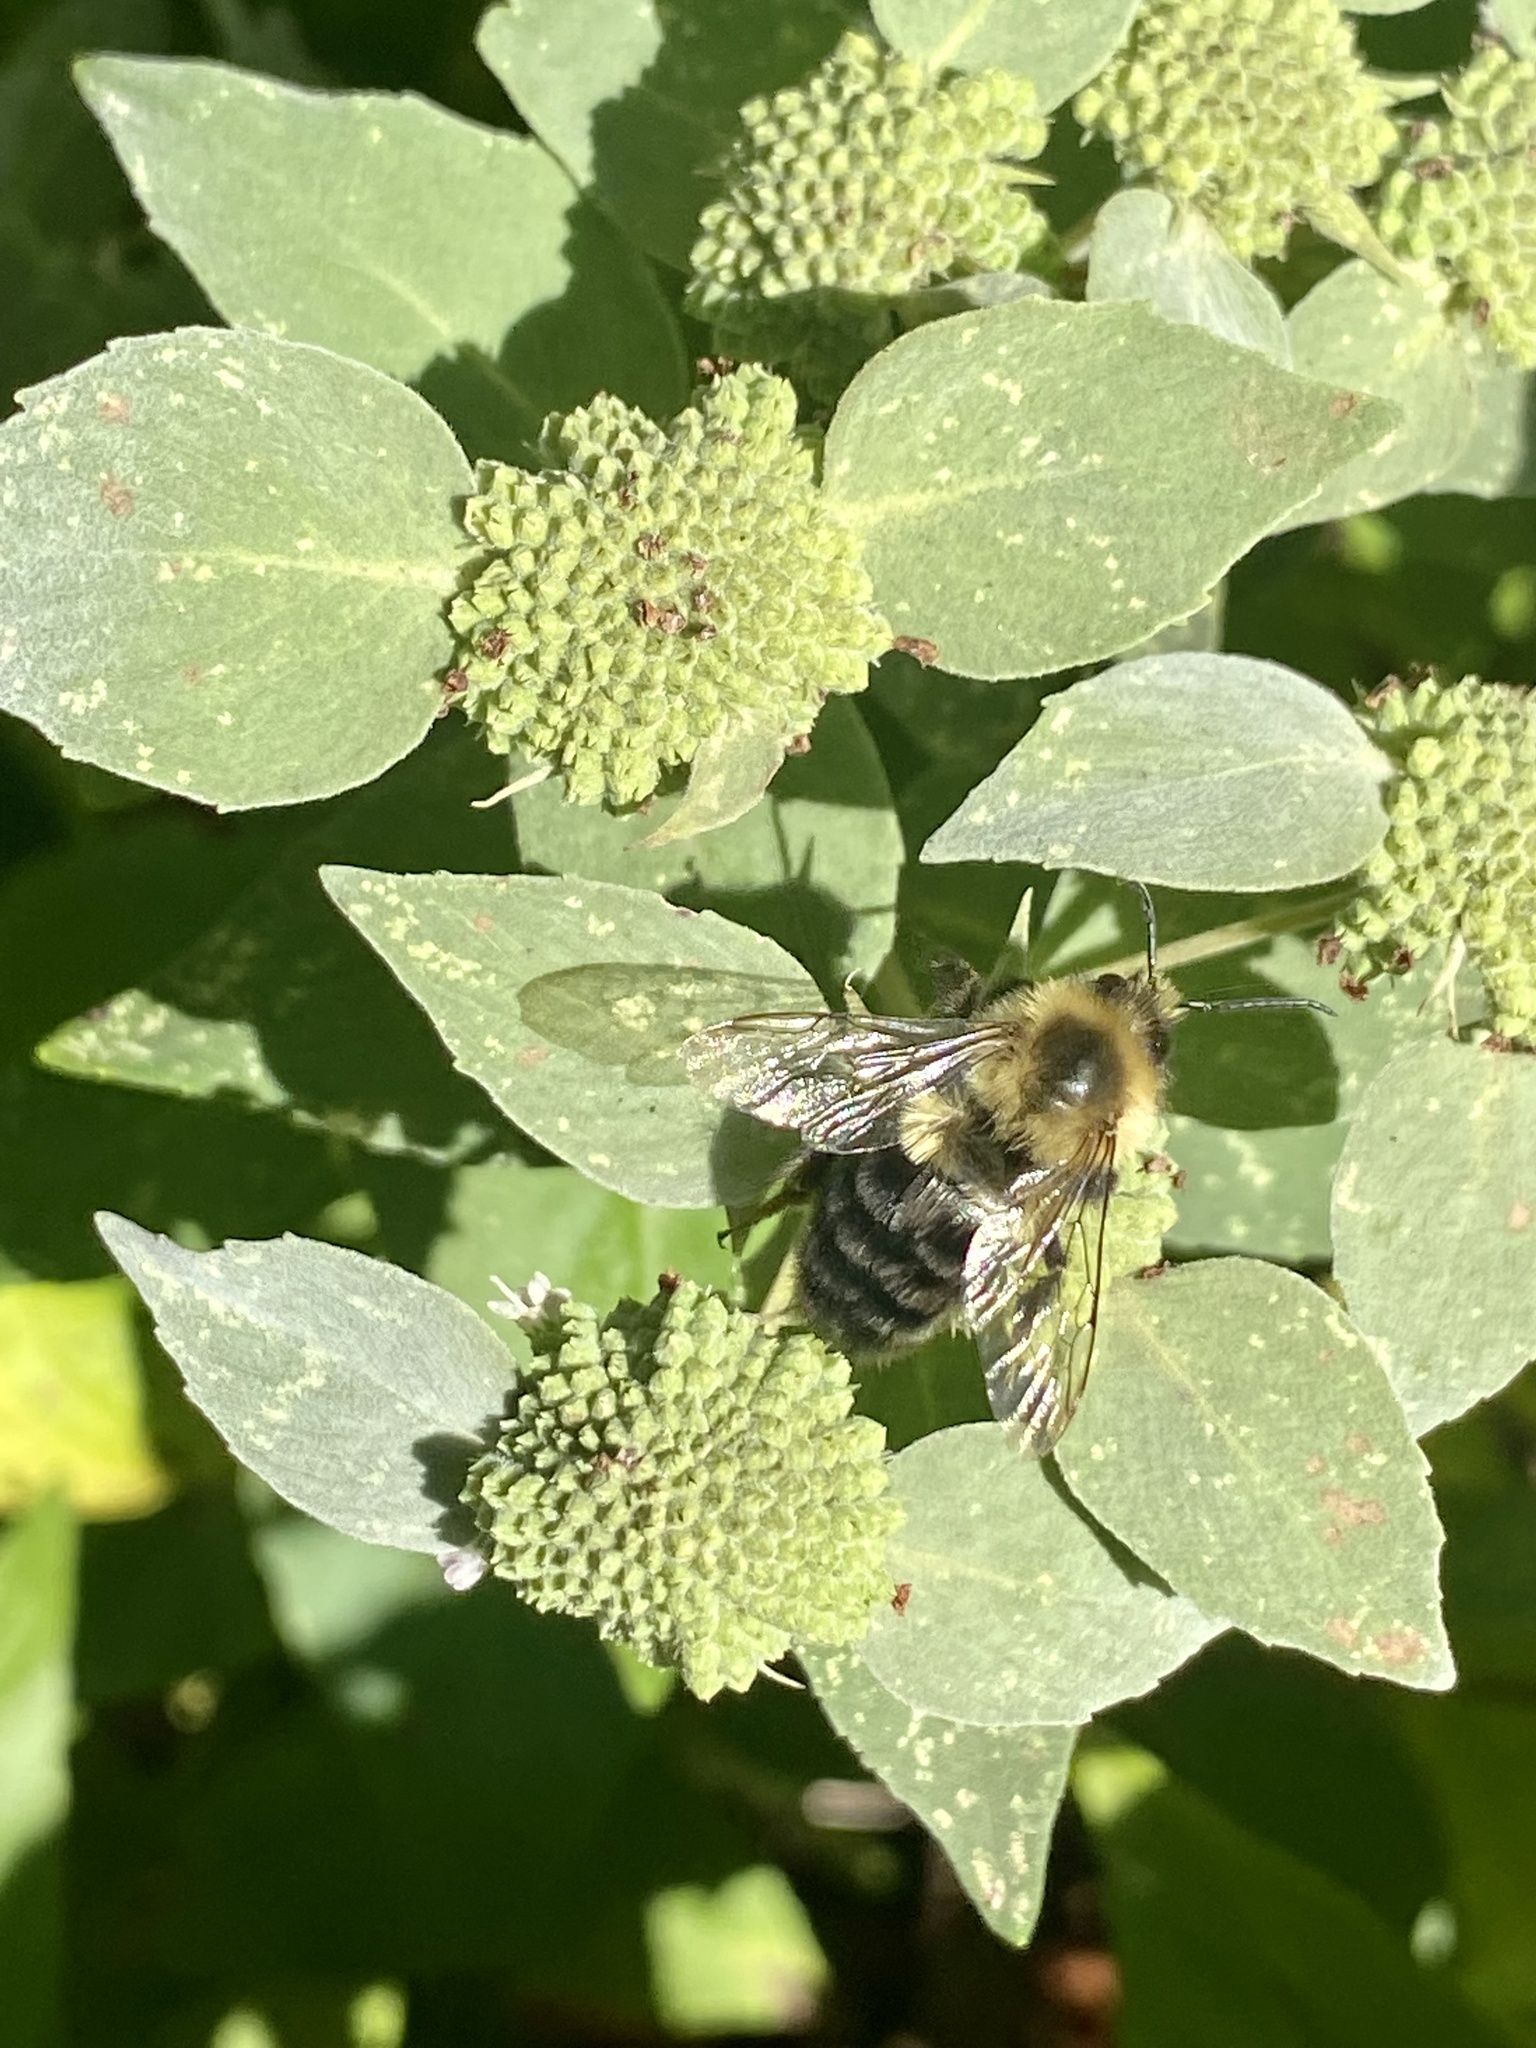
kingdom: Animalia
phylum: Arthropoda
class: Insecta
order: Hymenoptera
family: Apidae
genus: Bombus
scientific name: Bombus impatiens
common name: Common eastern bumble bee
